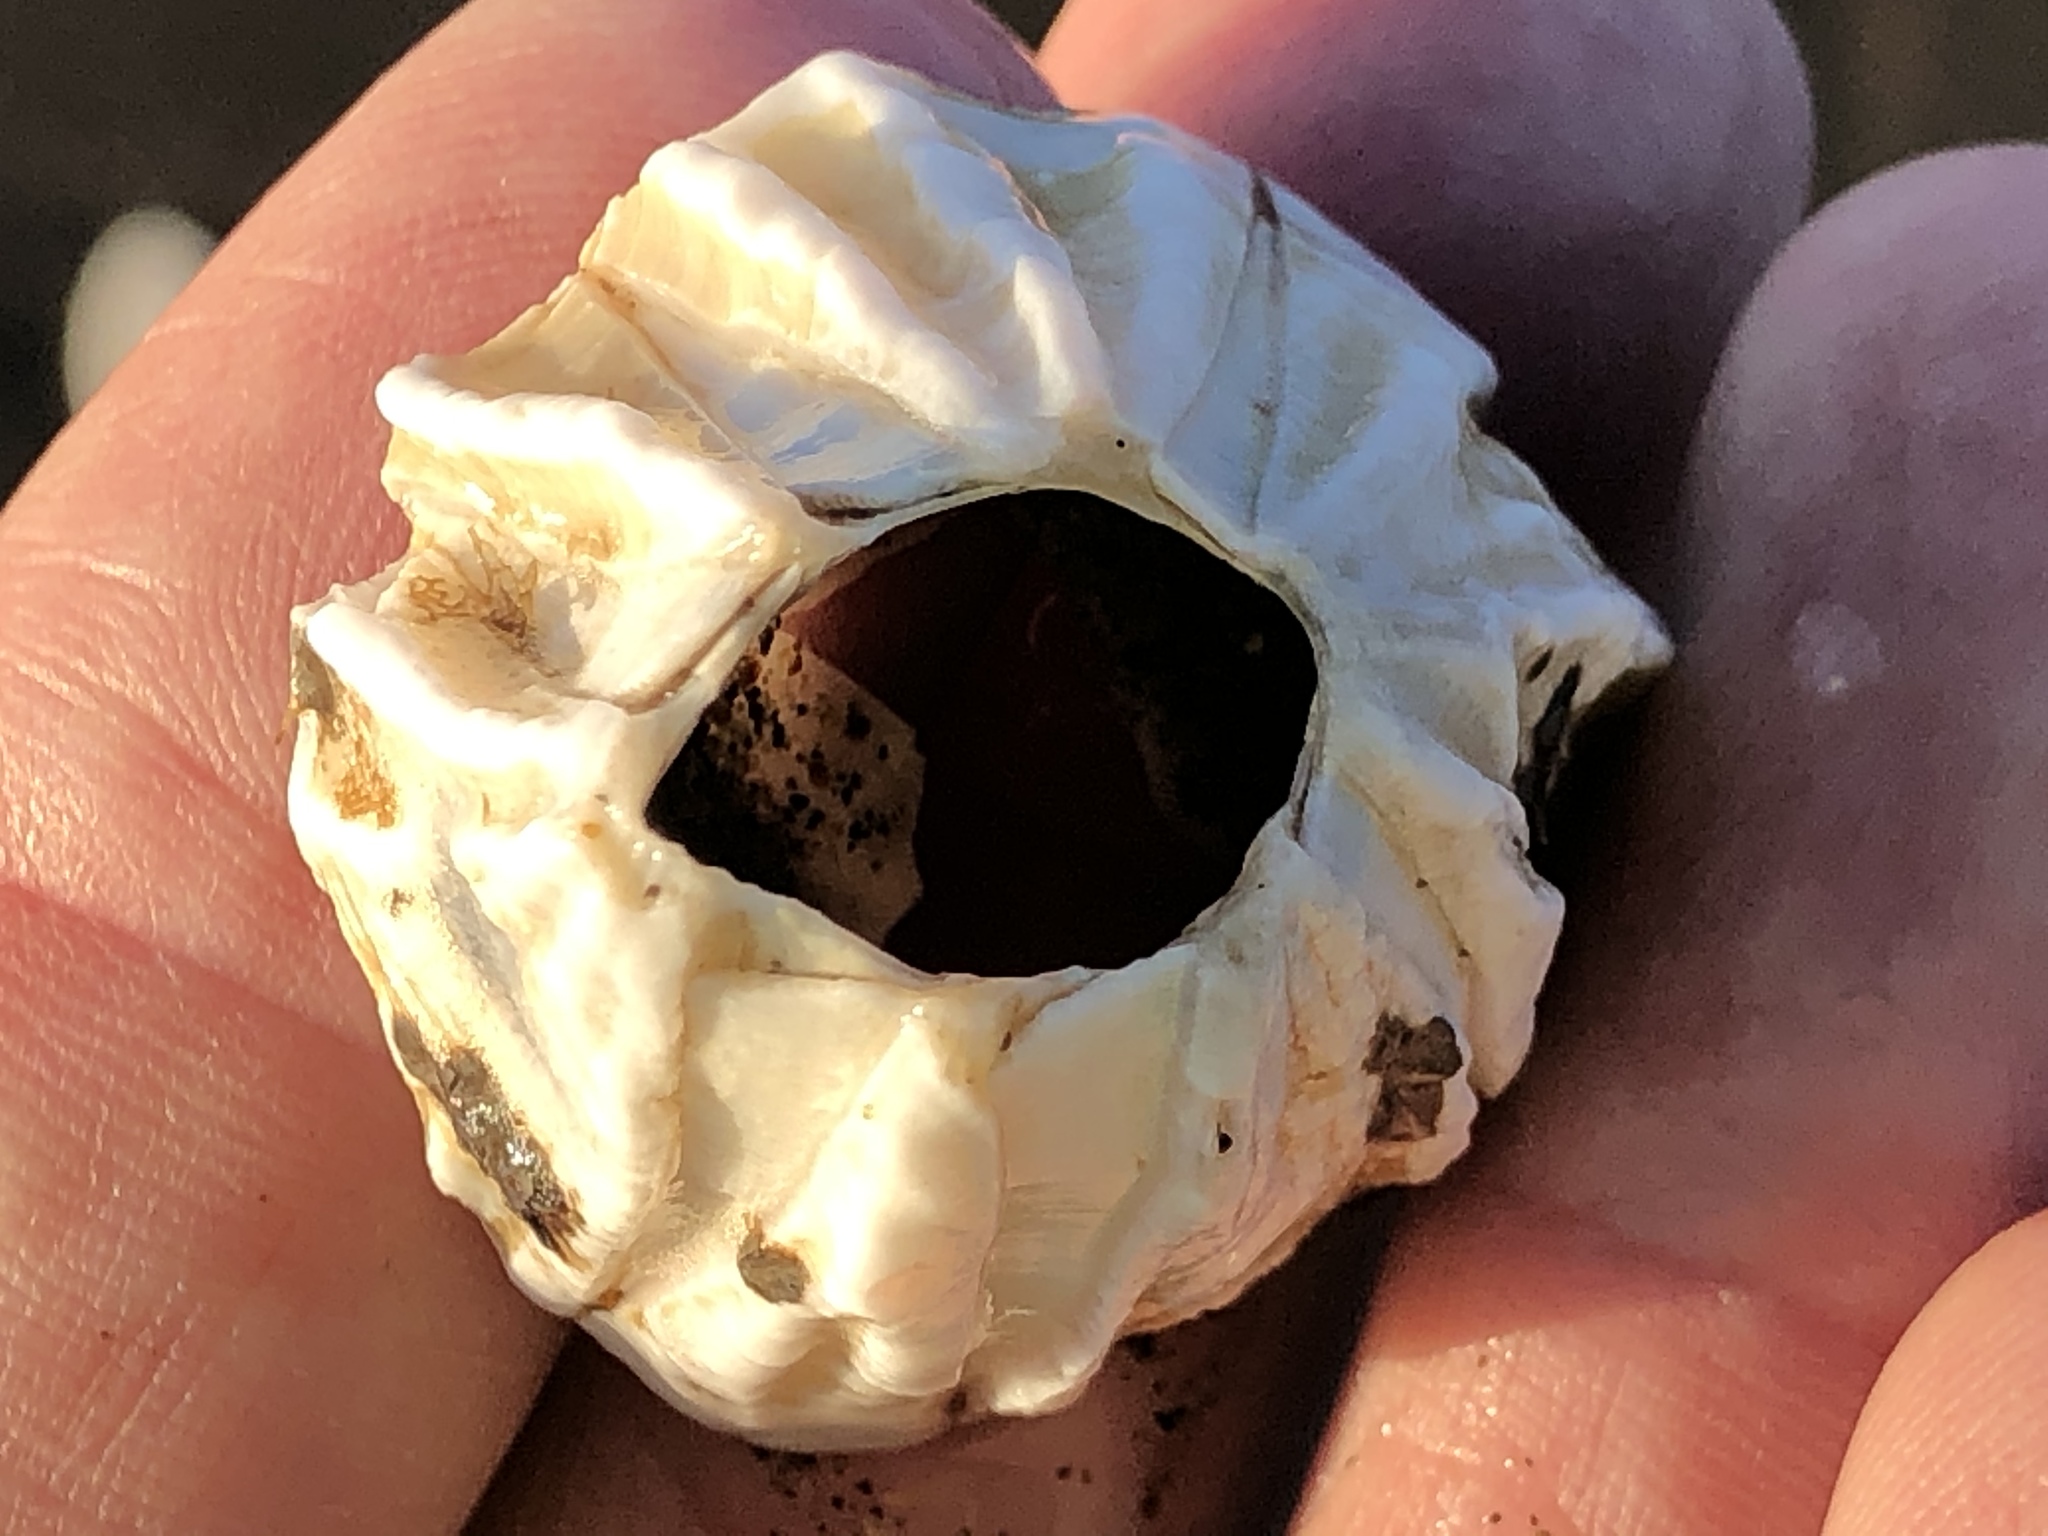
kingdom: Animalia
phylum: Arthropoda
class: Maxillopoda
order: Sessilia
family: Balanidae
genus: Menesiniella
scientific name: Menesiniella aquila
